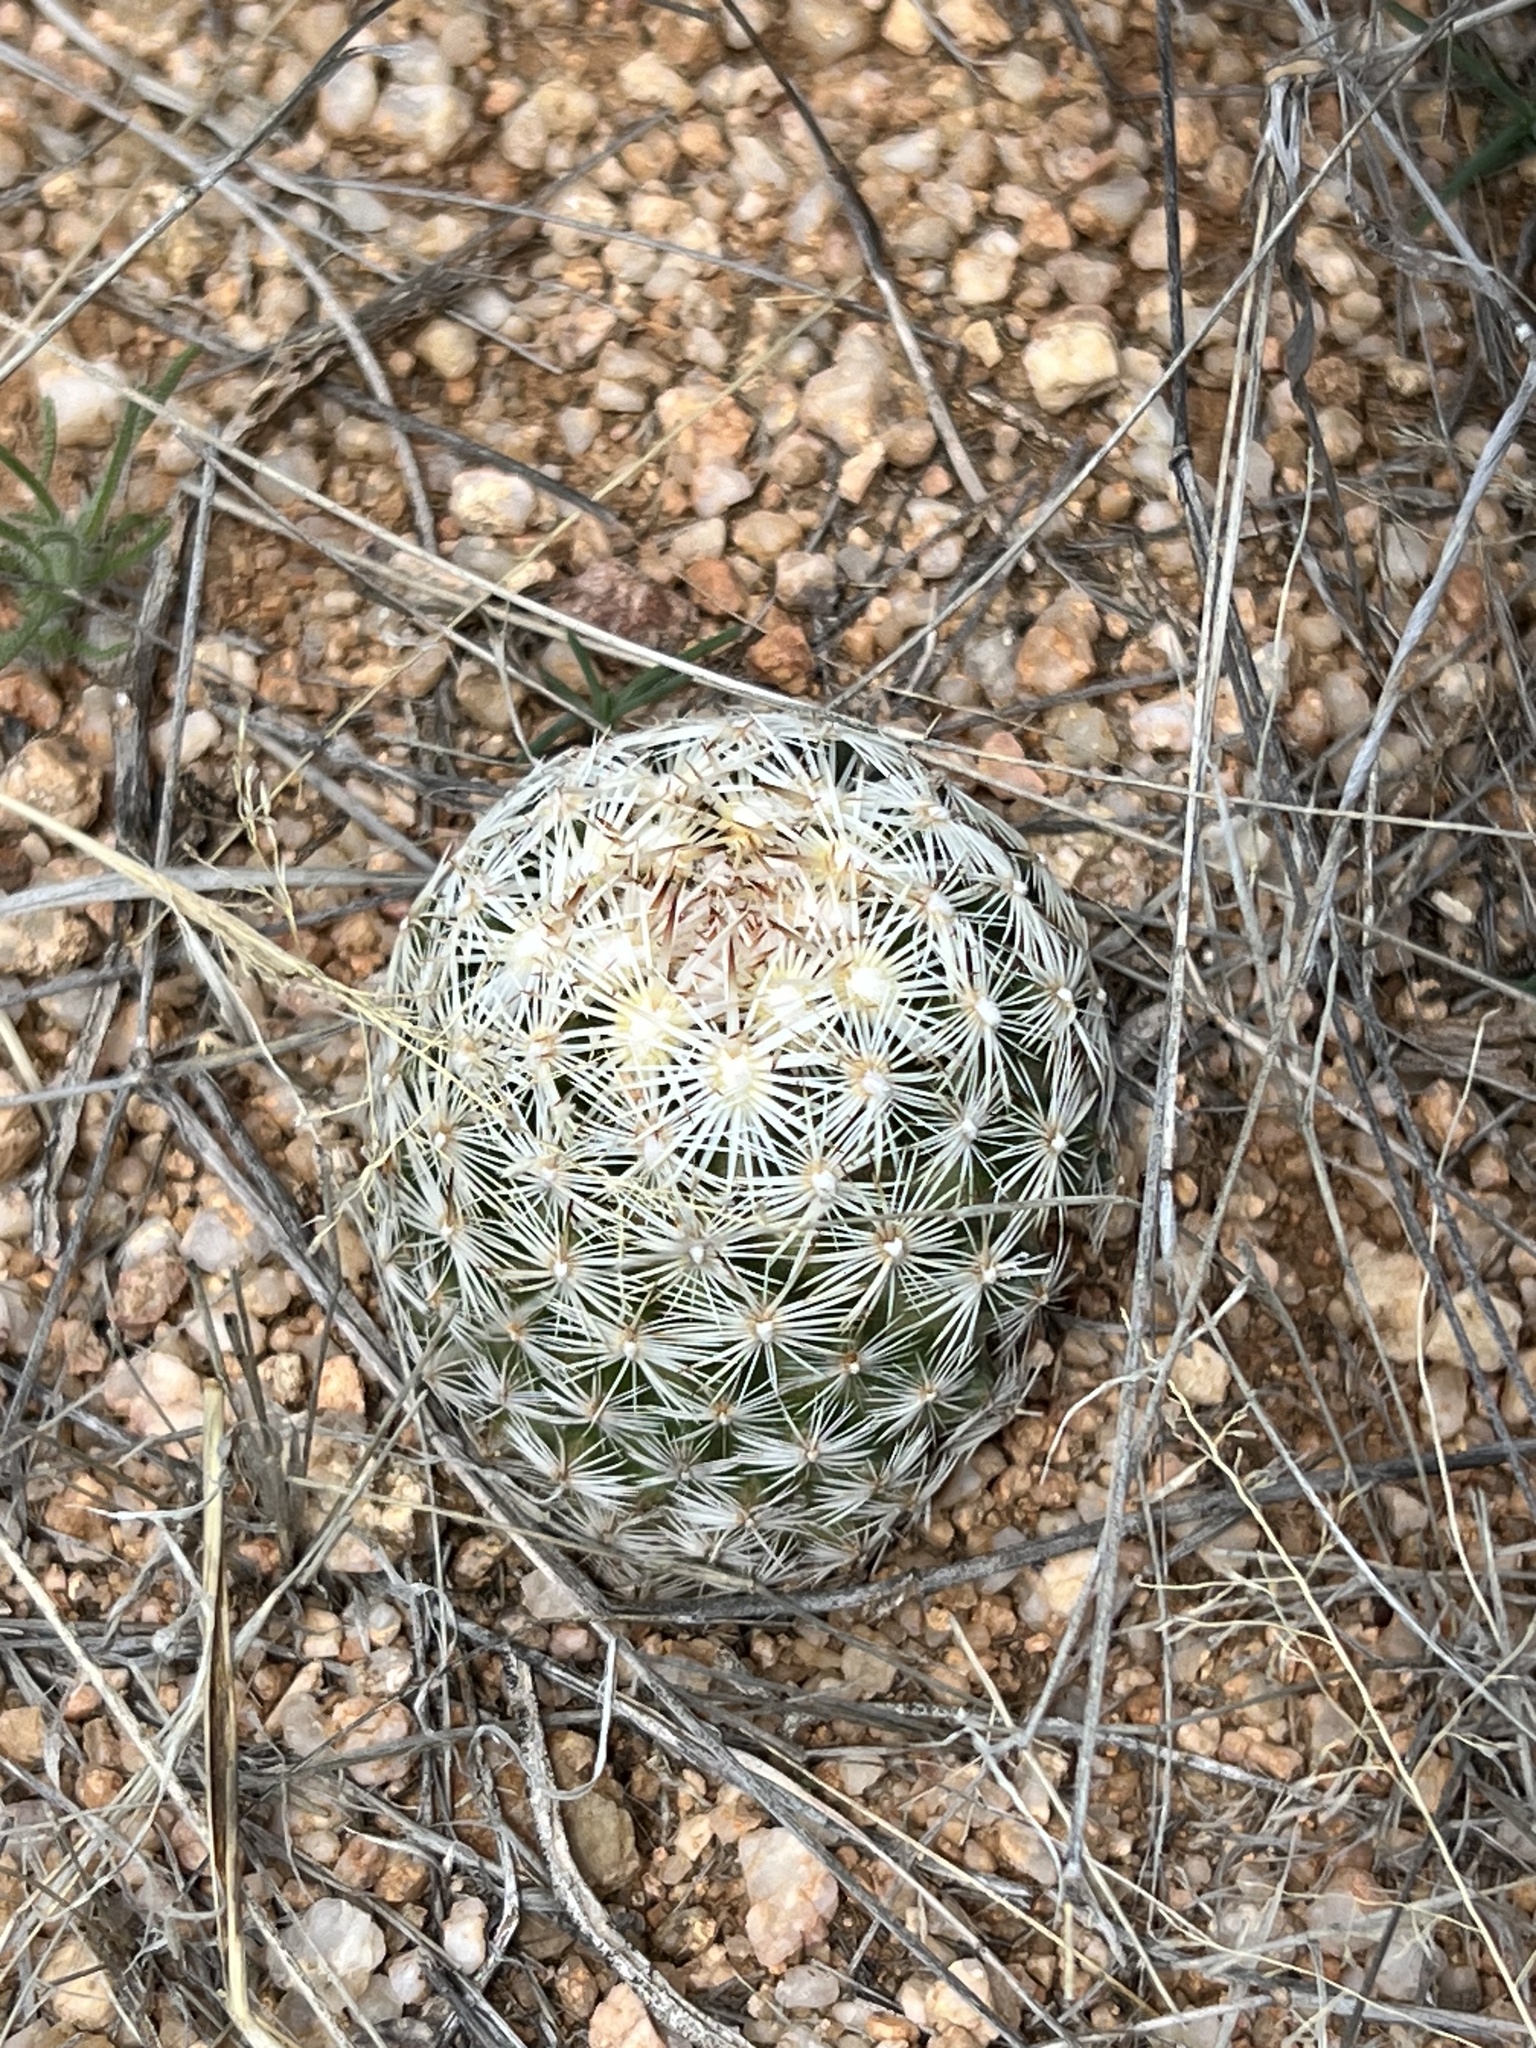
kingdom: Plantae
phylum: Tracheophyta
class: Magnoliopsida
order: Caryophyllales
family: Cactaceae
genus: Pelecyphora
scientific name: Pelecyphora vivipara
